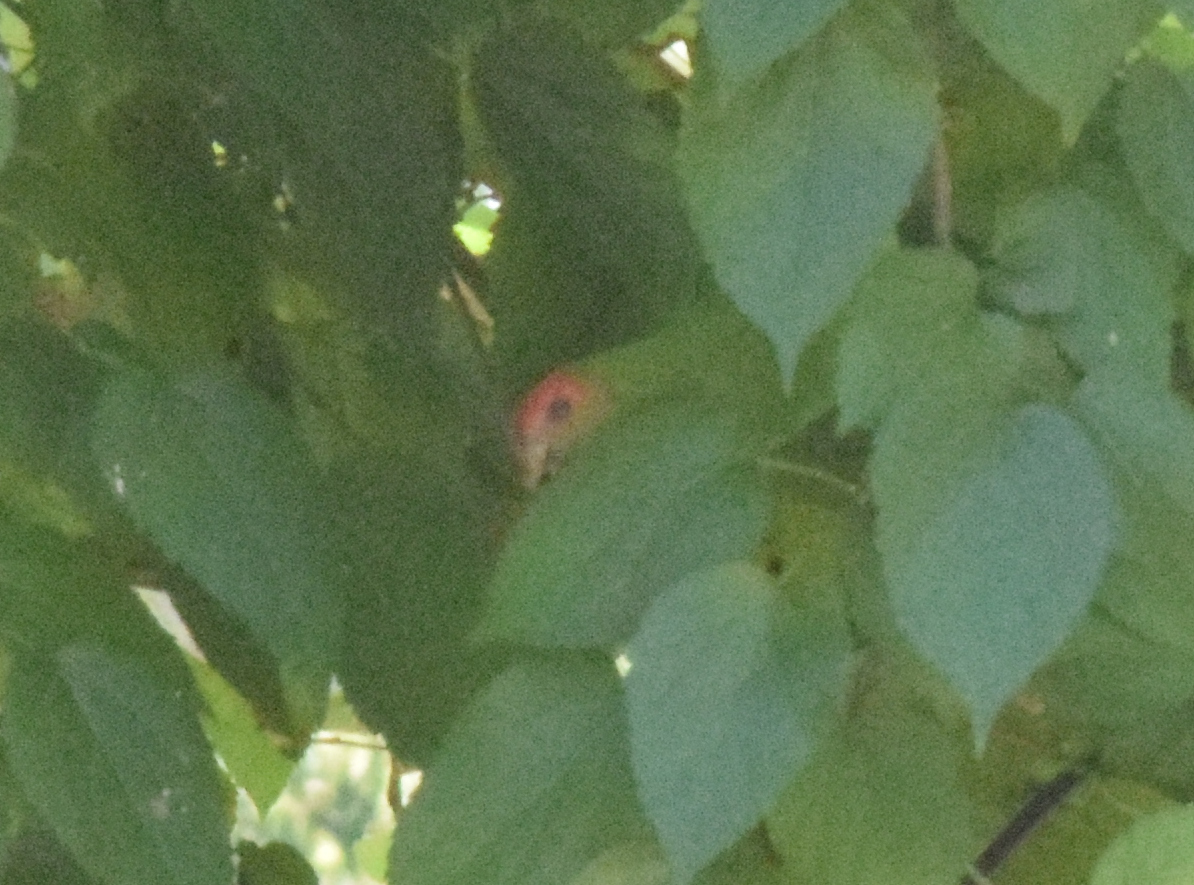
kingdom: Animalia
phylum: Chordata
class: Aves
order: Psittaciformes
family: Psittacidae
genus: Pionopsitta
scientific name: Pionopsitta pileata
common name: Pileated parrot
